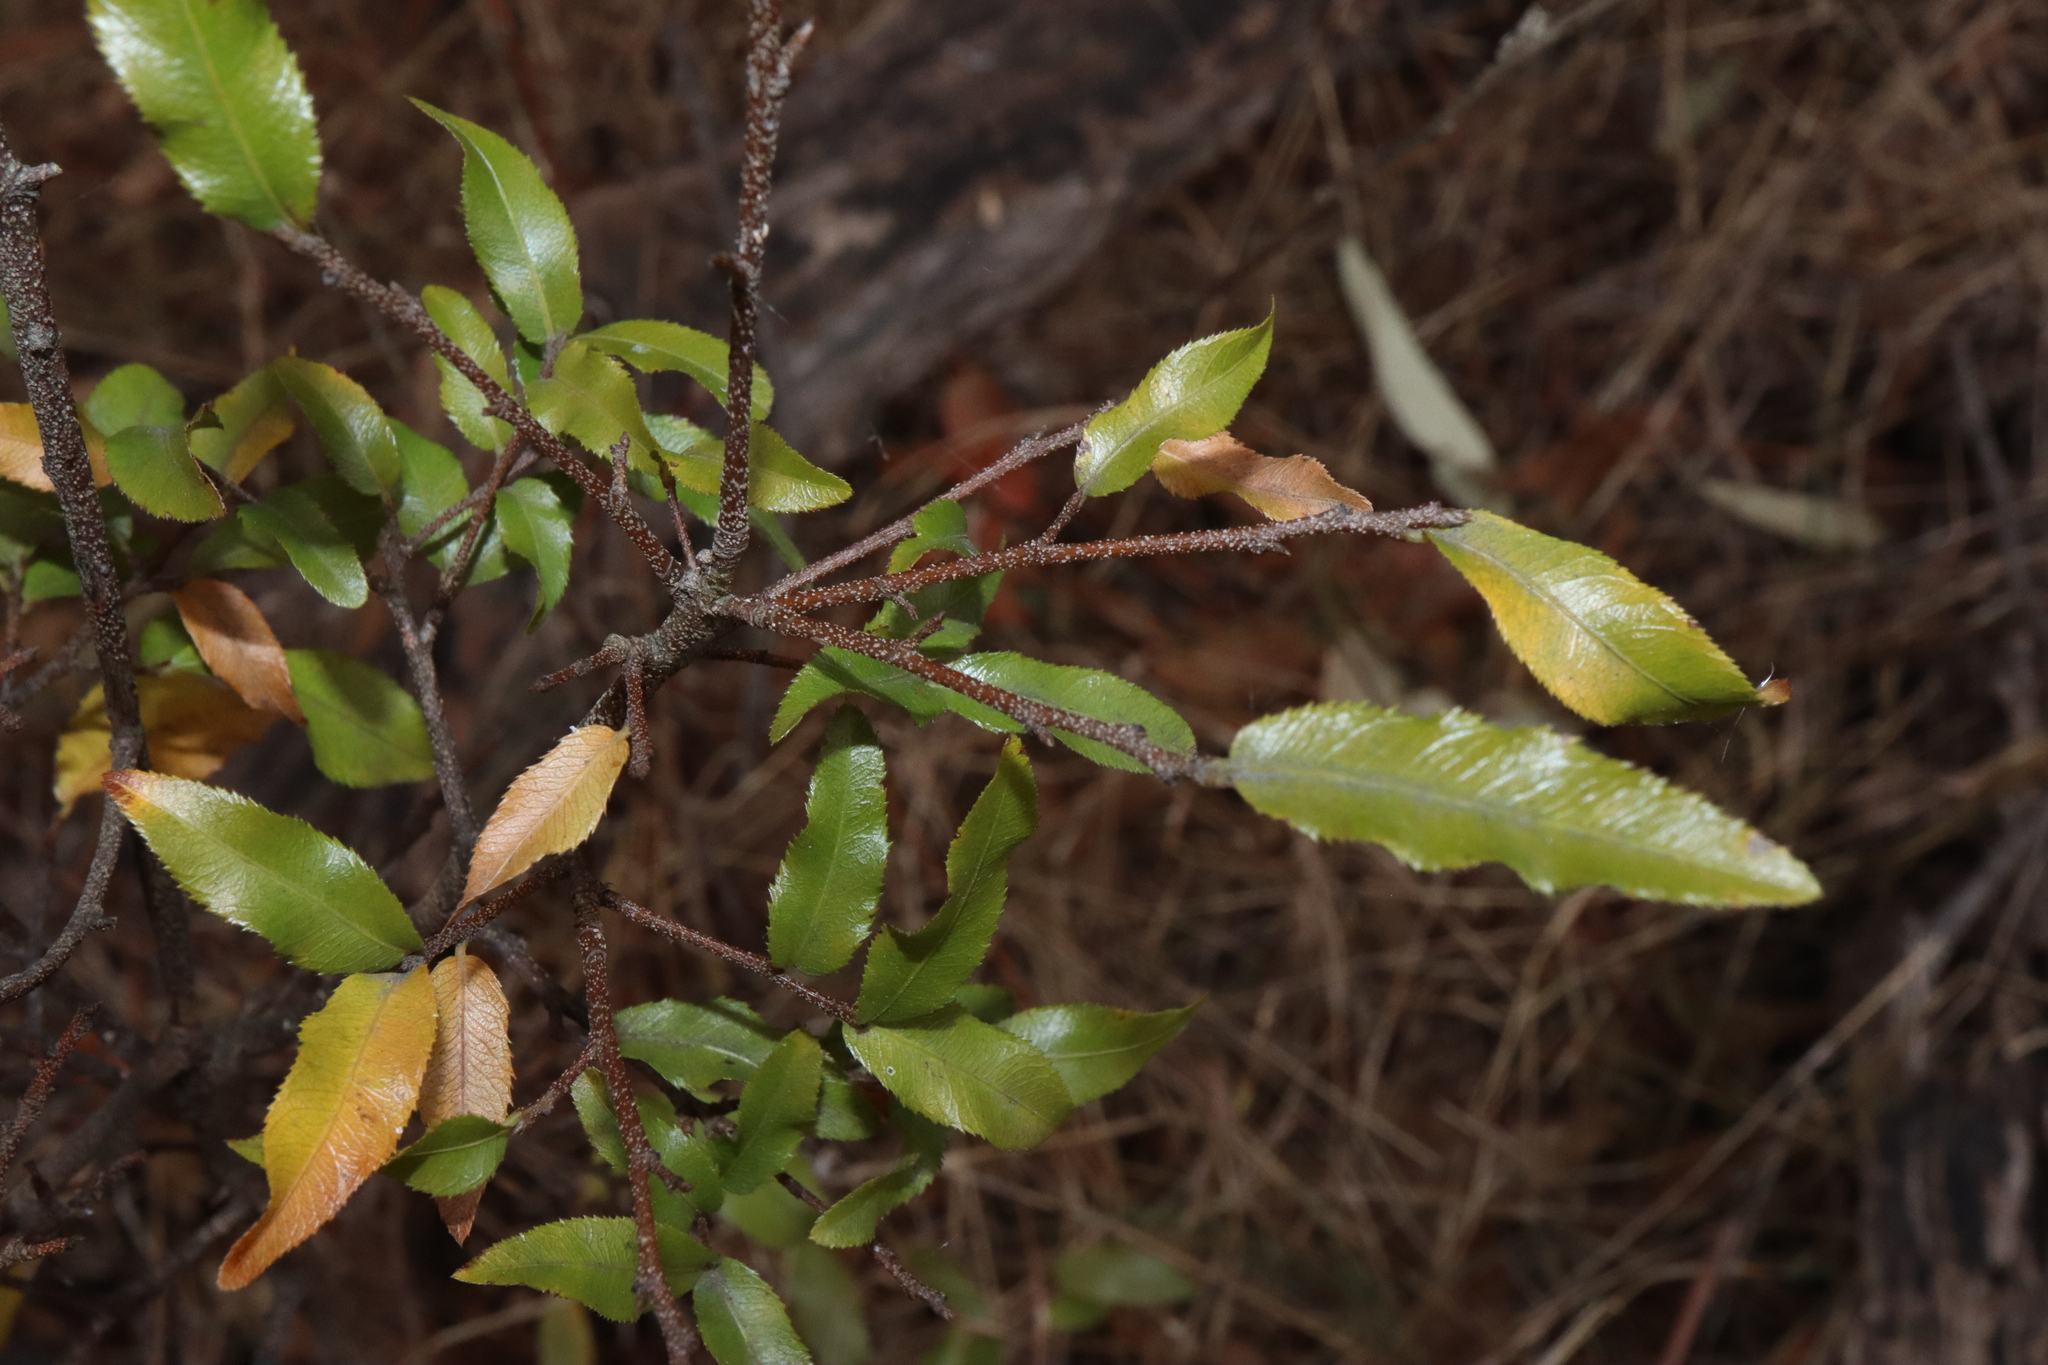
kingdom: Plantae
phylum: Tracheophyta
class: Magnoliopsida
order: Malpighiales
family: Ochnaceae
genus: Ochna
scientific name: Ochna serrulata
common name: Mickey mouse plant
